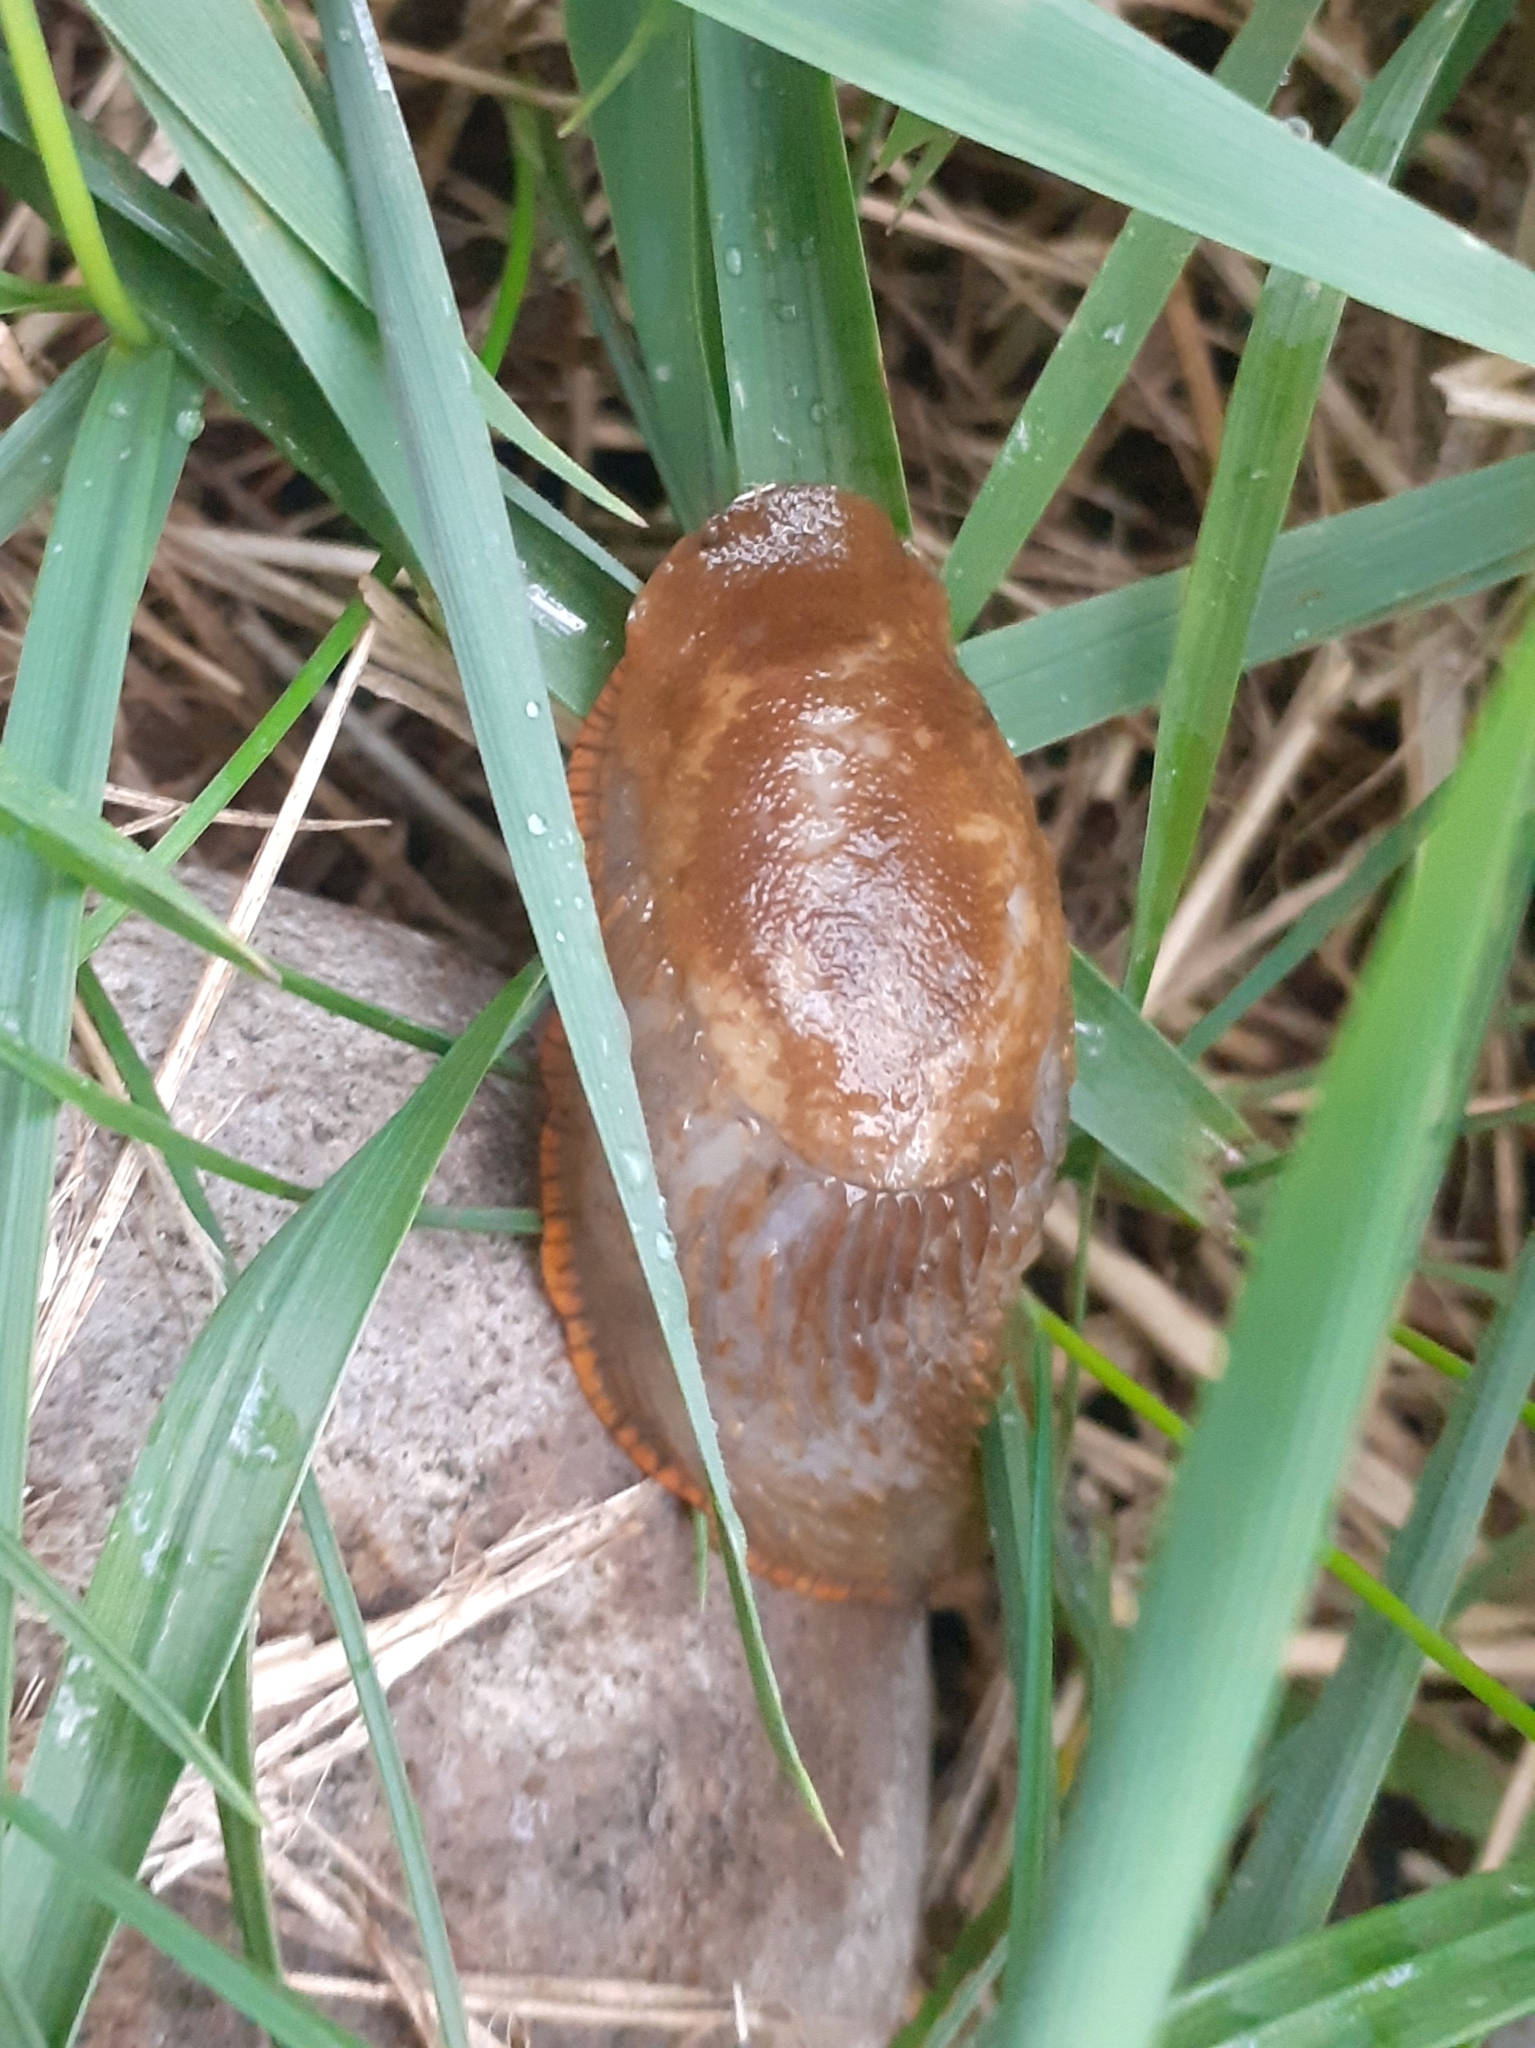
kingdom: Animalia
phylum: Mollusca
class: Gastropoda
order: Stylommatophora
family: Arionidae
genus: Arion
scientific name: Arion
